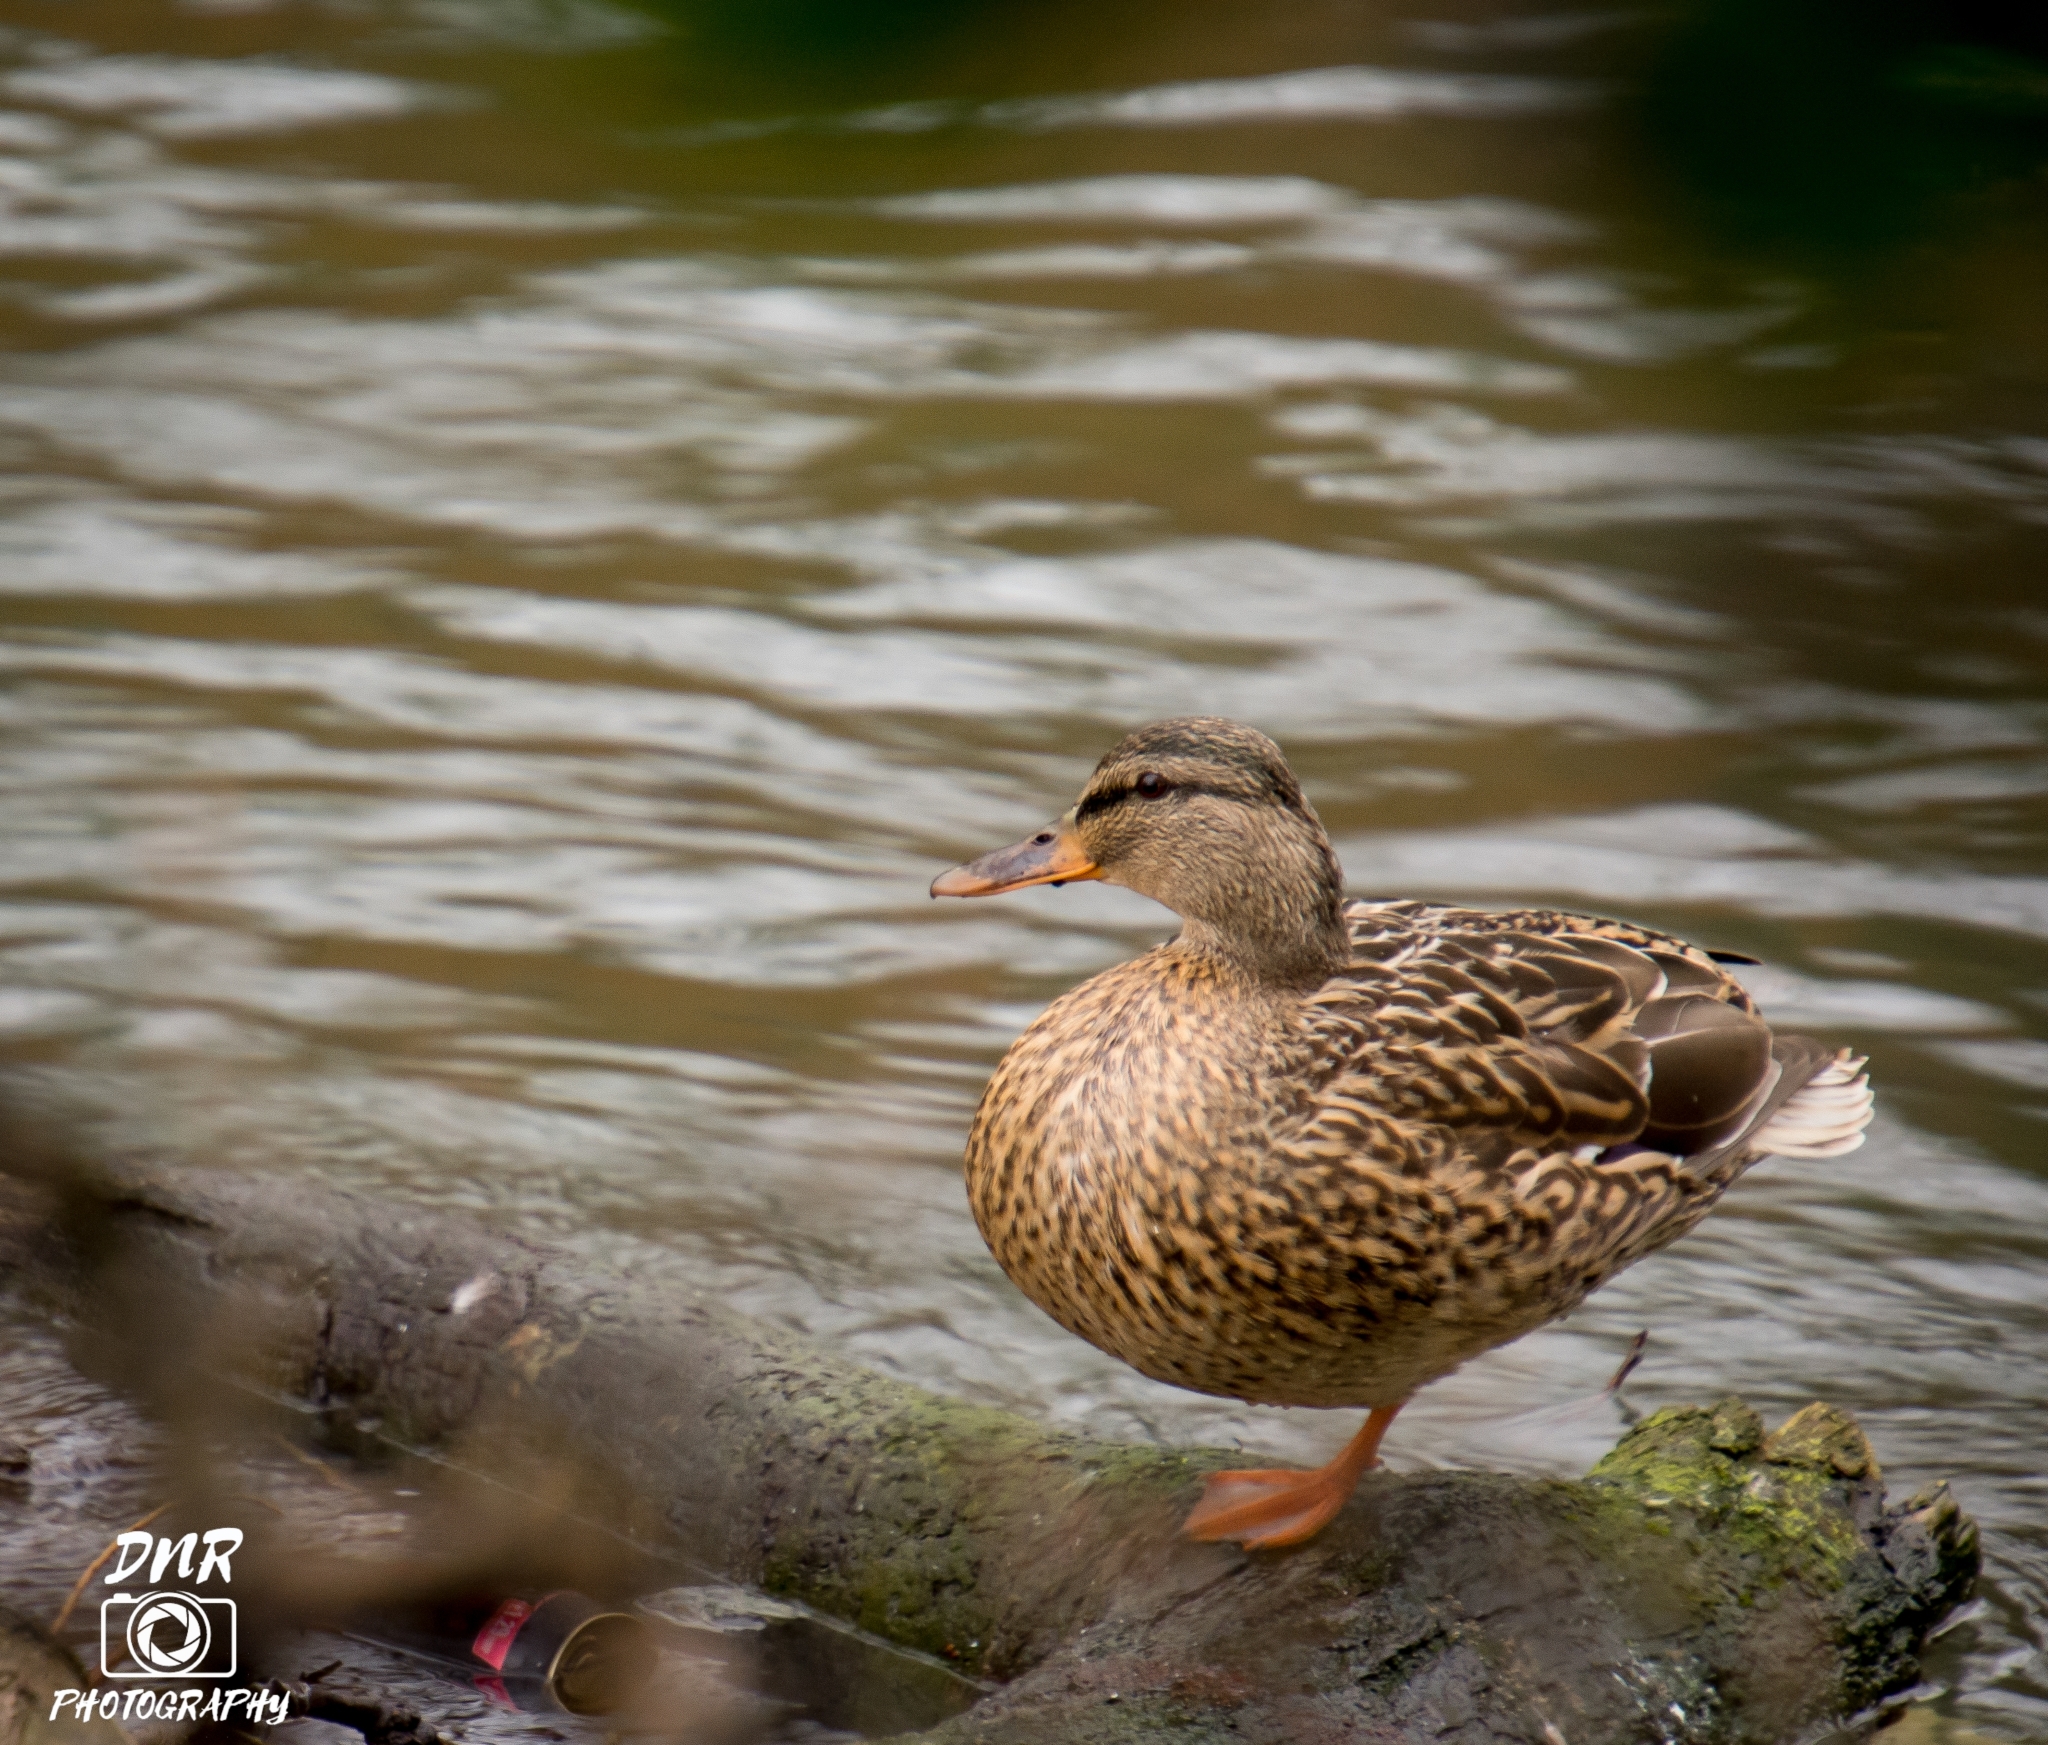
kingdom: Animalia
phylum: Chordata
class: Aves
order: Anseriformes
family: Anatidae
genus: Anas
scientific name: Anas platyrhynchos
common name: Mallard
